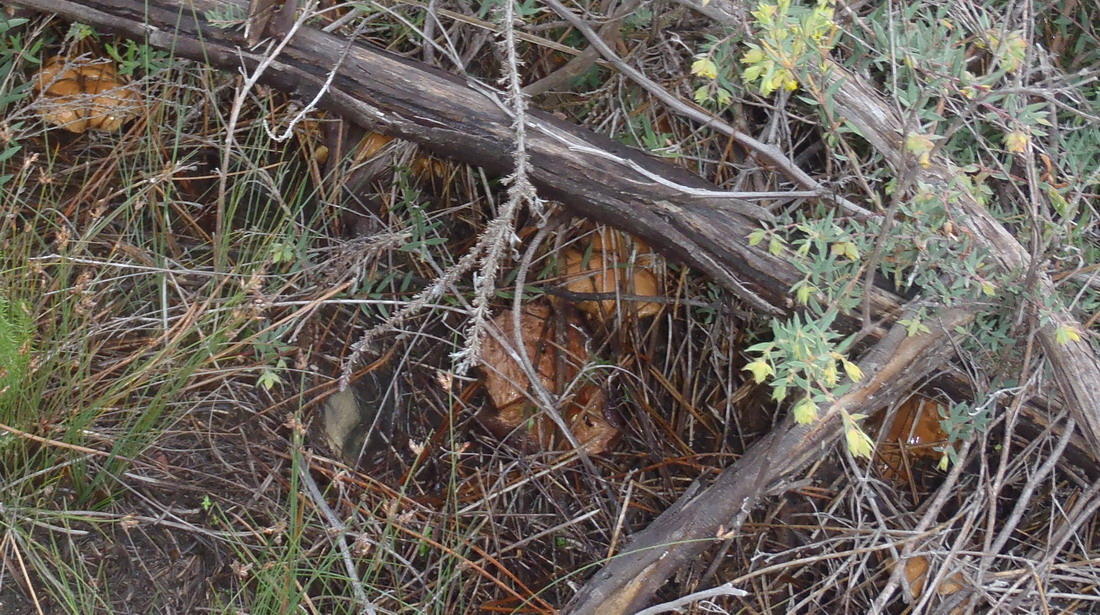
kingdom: Fungi
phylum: Basidiomycota
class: Agaricomycetes
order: Boletales
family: Suillaceae
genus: Suillus
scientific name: Suillus bovinus
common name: Bovine bolete
